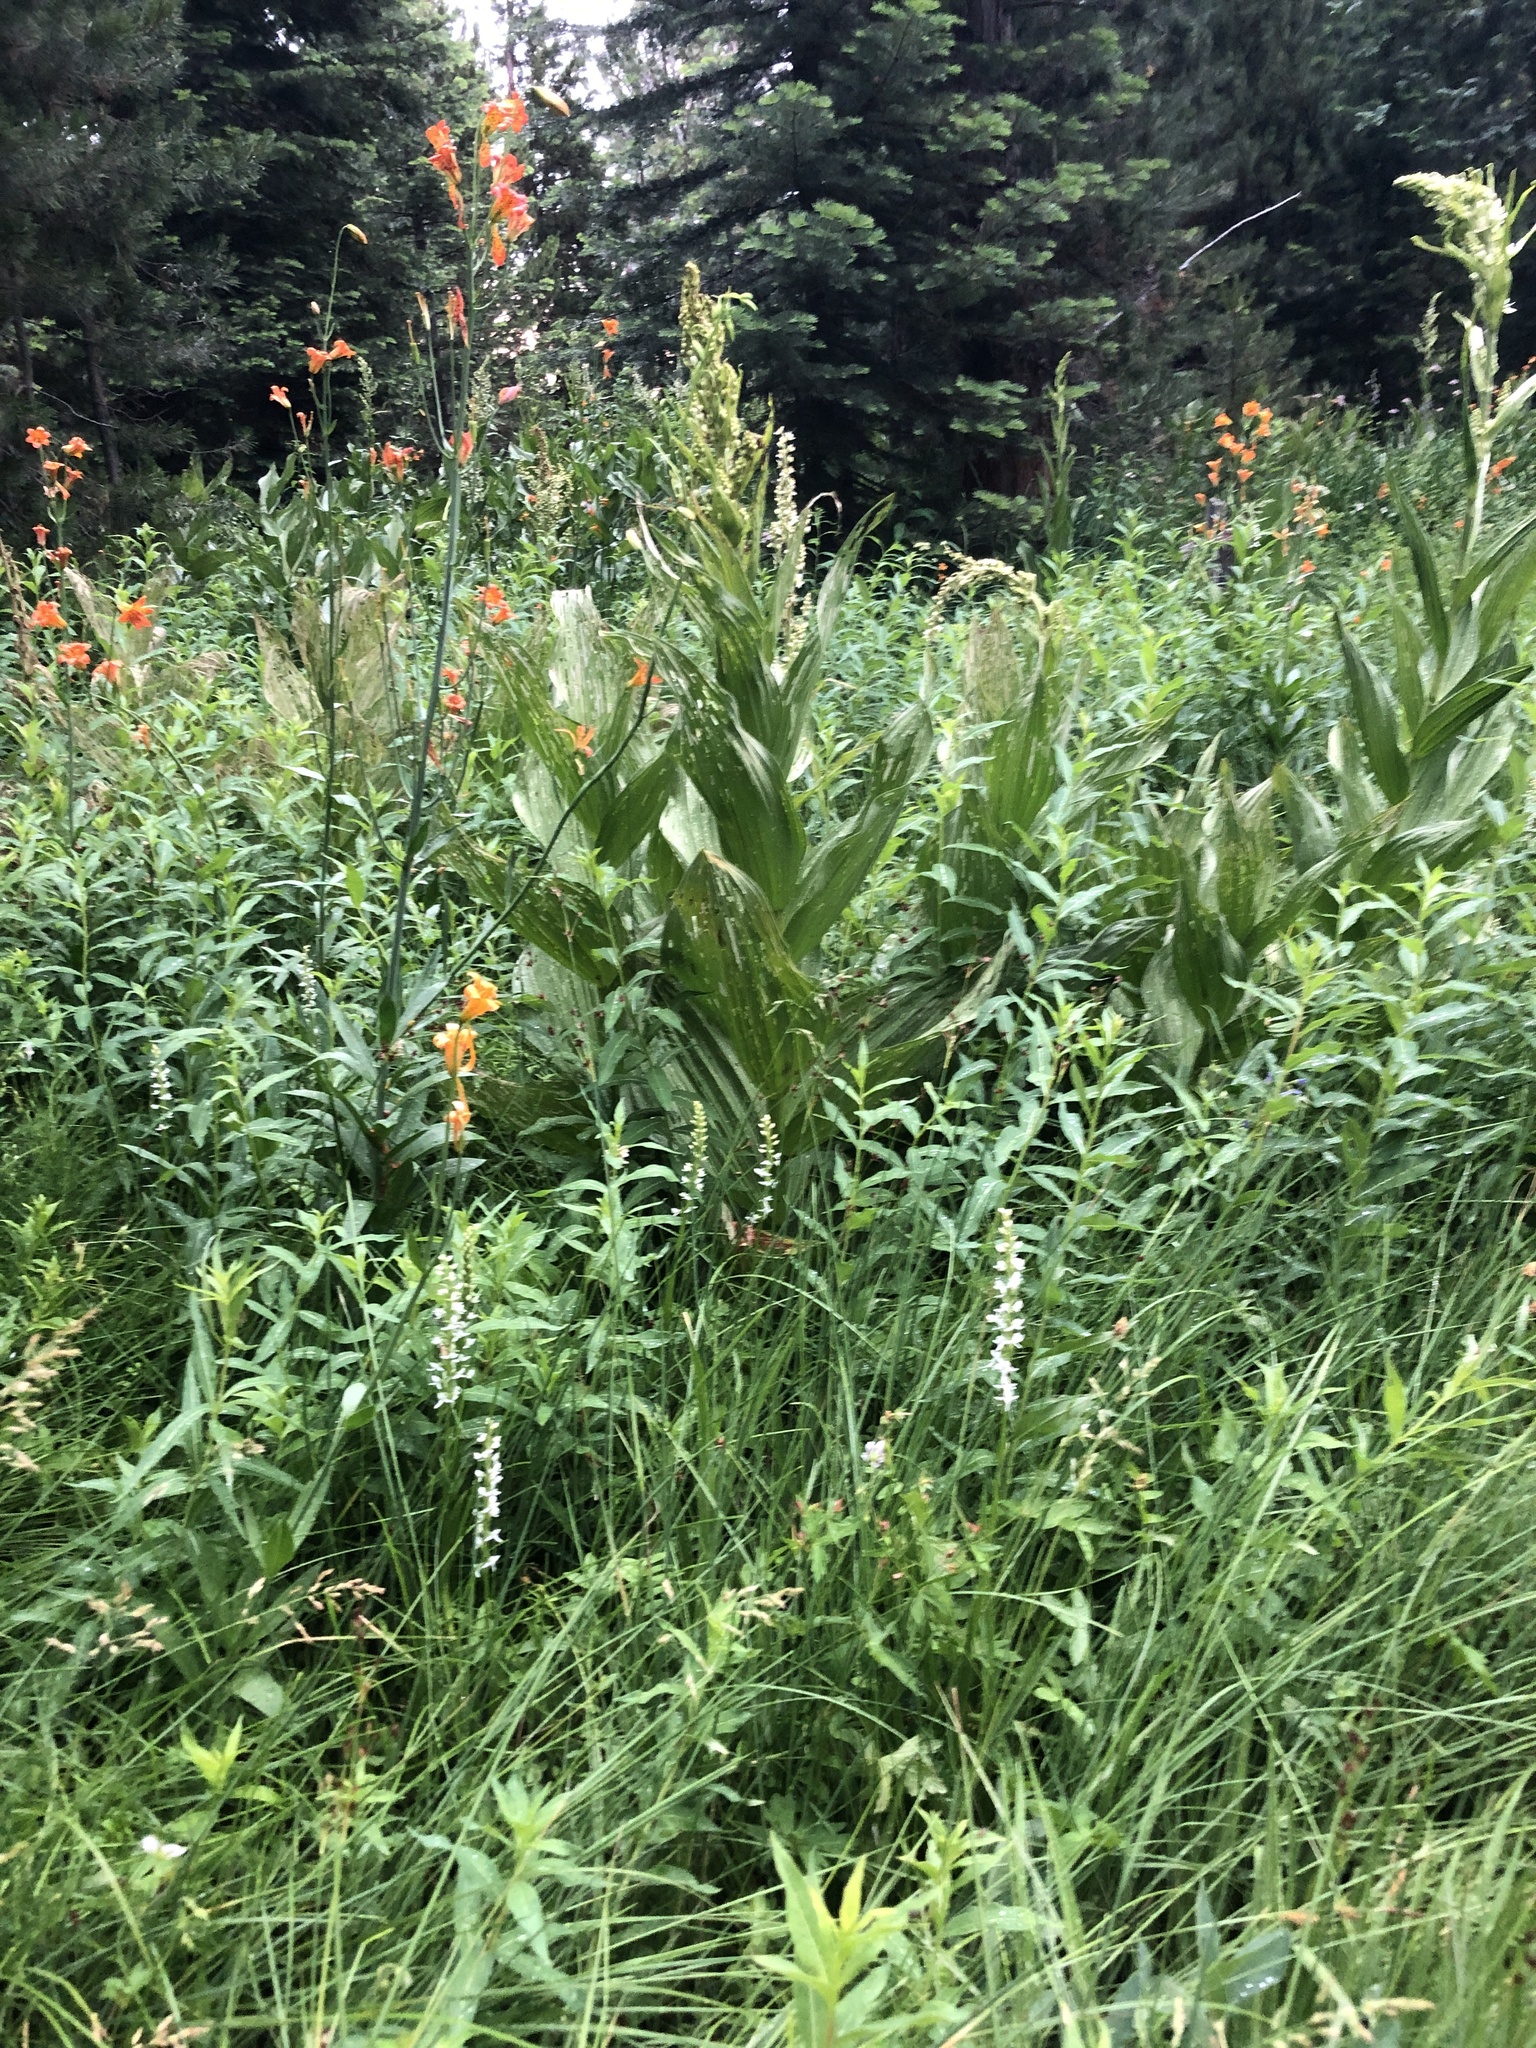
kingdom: Plantae
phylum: Tracheophyta
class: Liliopsida
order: Liliales
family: Melanthiaceae
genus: Veratrum
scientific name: Veratrum californicum
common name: California veratrum
